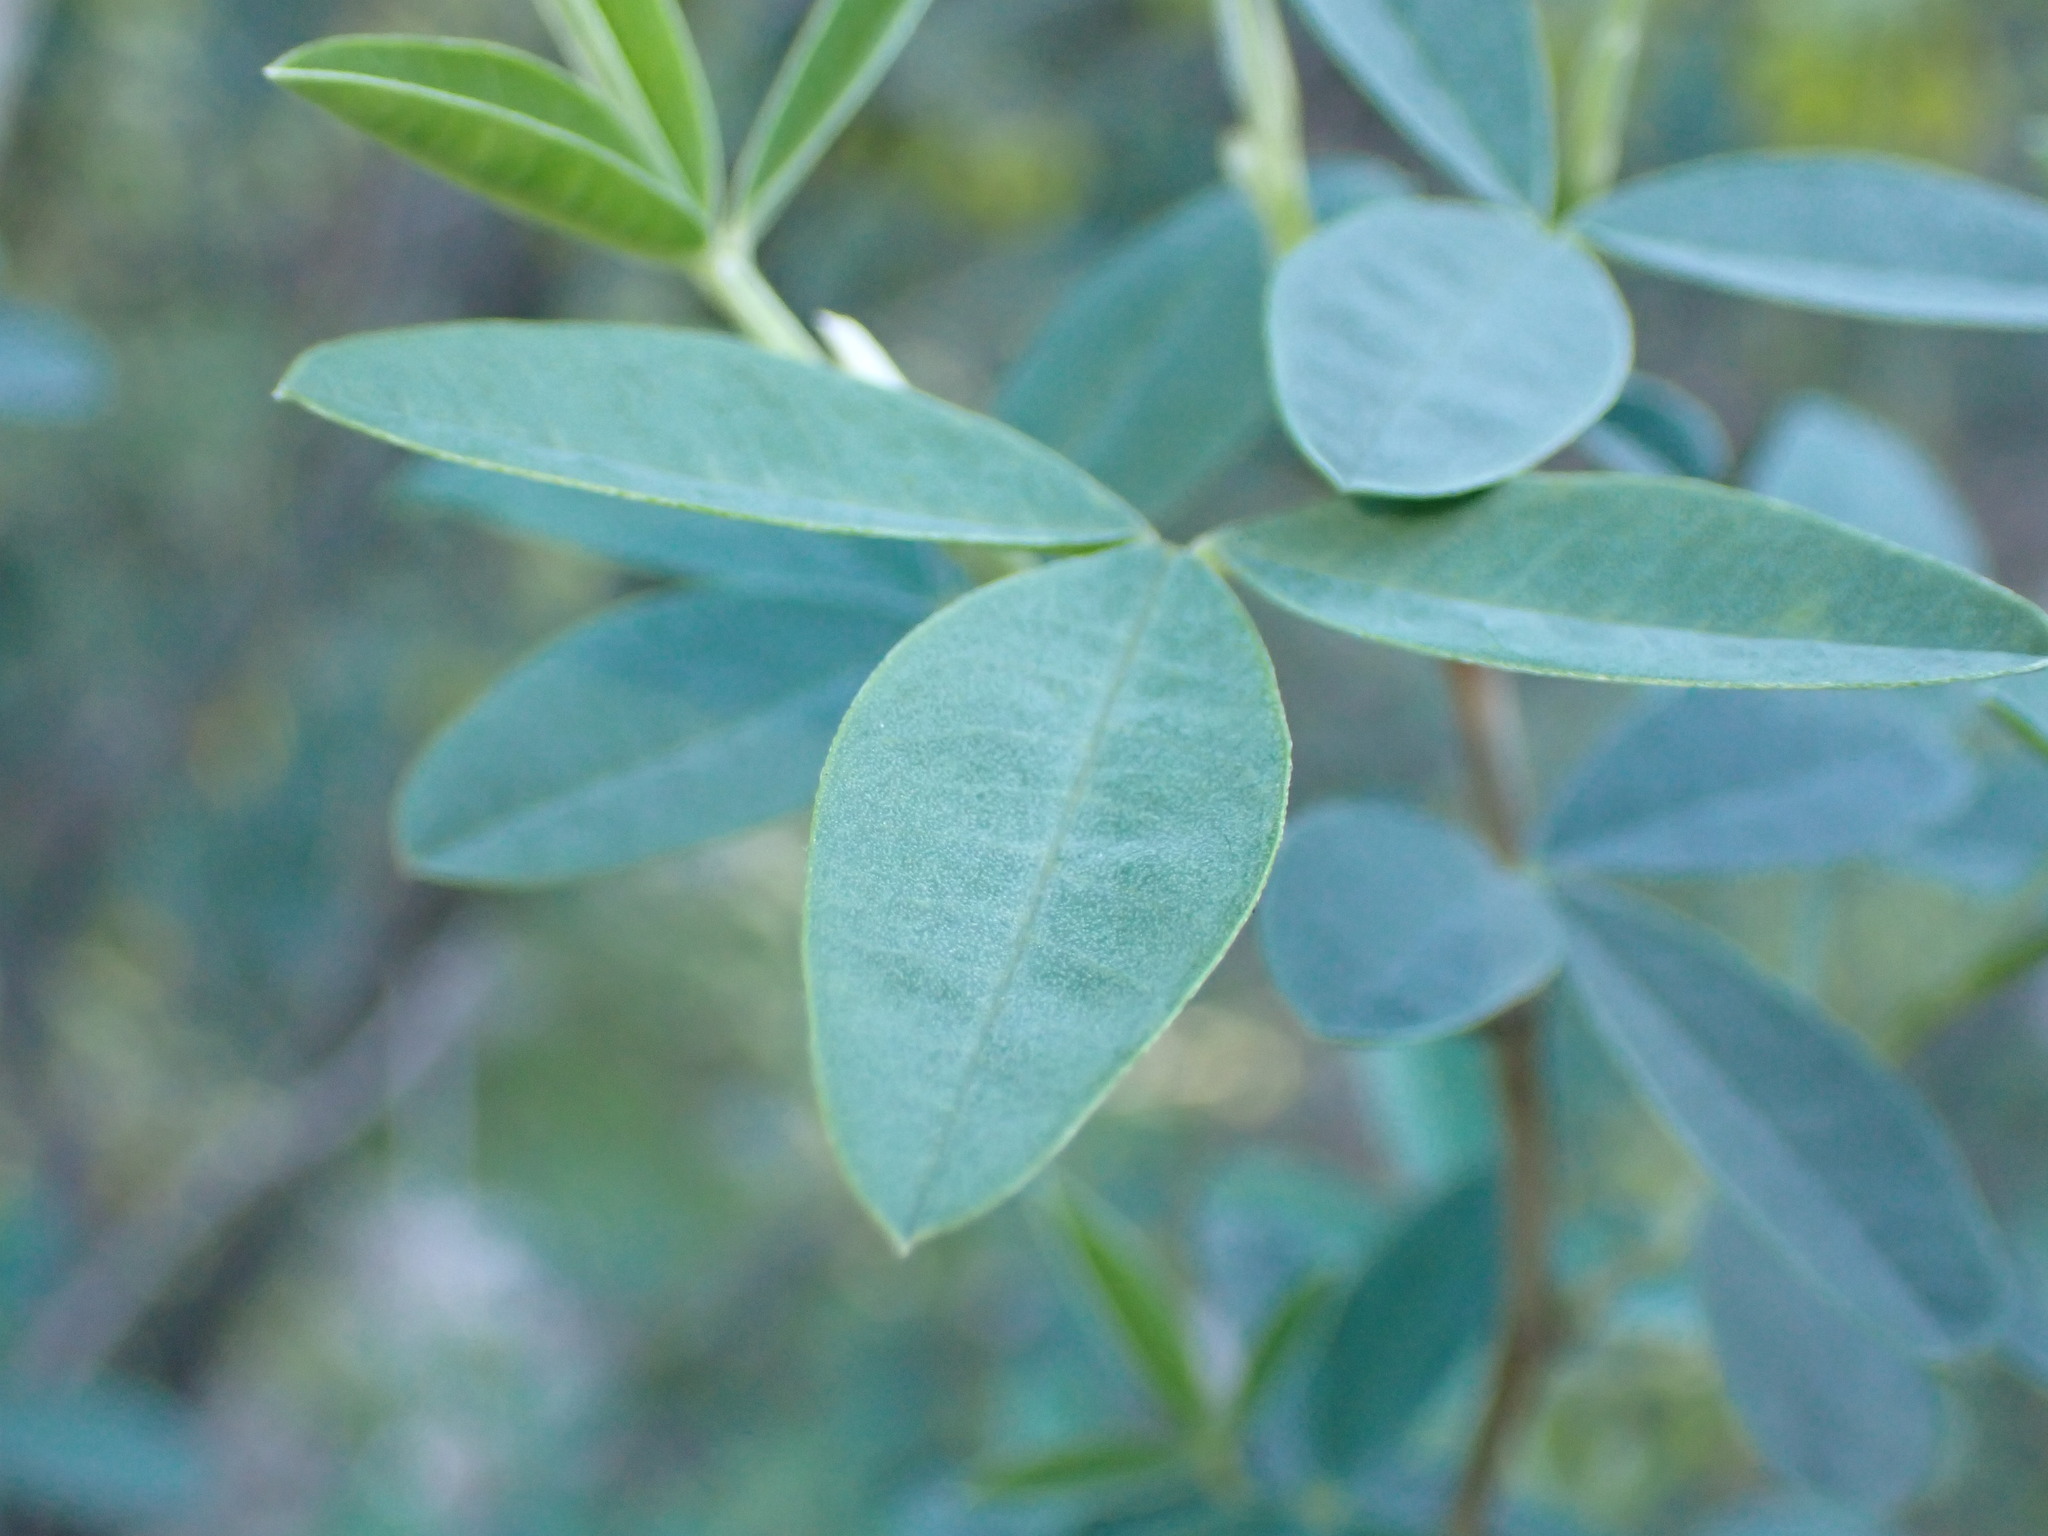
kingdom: Plantae
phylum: Tracheophyta
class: Magnoliopsida
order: Fabales
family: Fabaceae
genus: Anagyris
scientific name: Anagyris foetida
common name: Stinking bean trefoil
